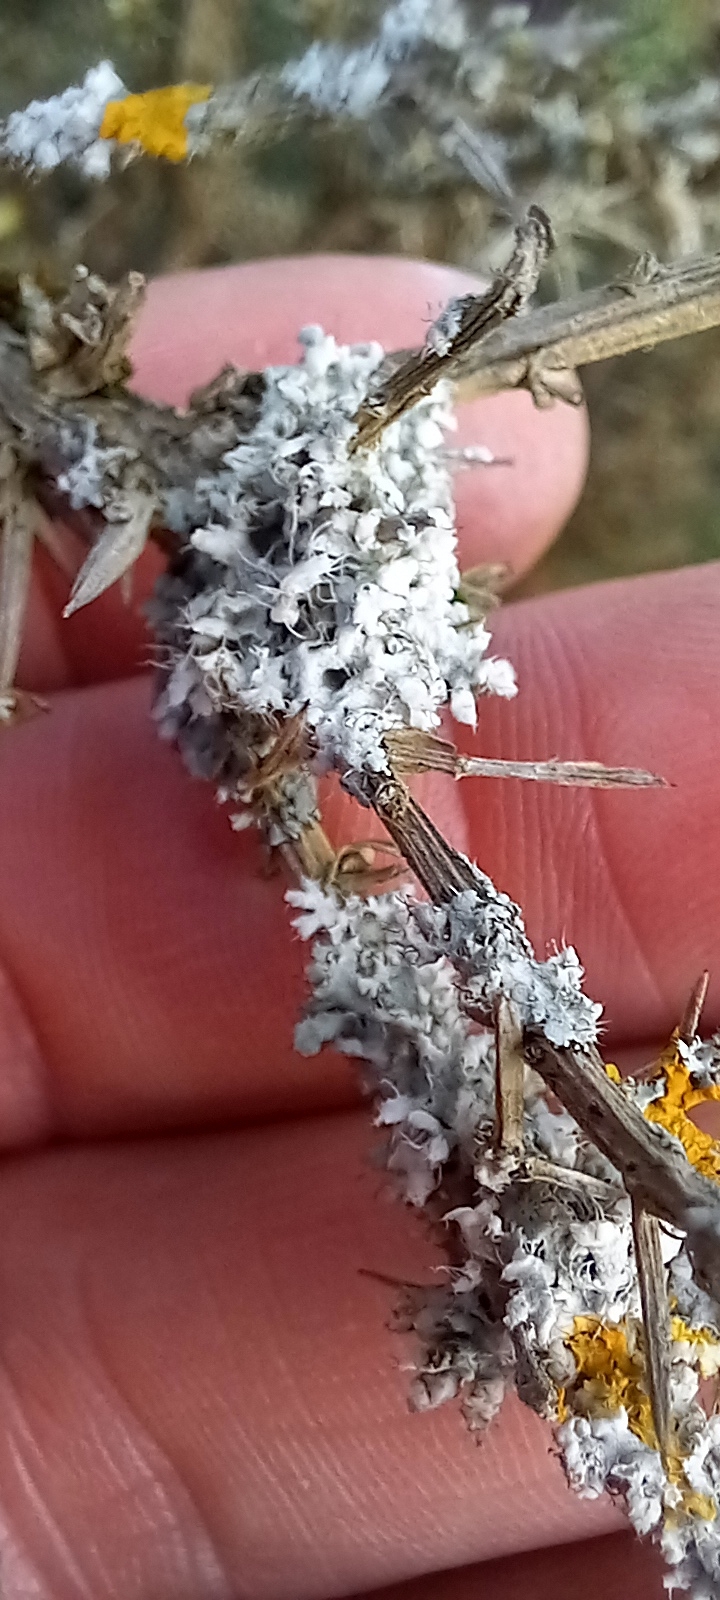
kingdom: Fungi
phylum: Ascomycota
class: Lecanoromycetes
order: Caliciales
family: Physciaceae
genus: Physcia
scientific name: Physcia adscendens
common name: Hooded rosette lichen
